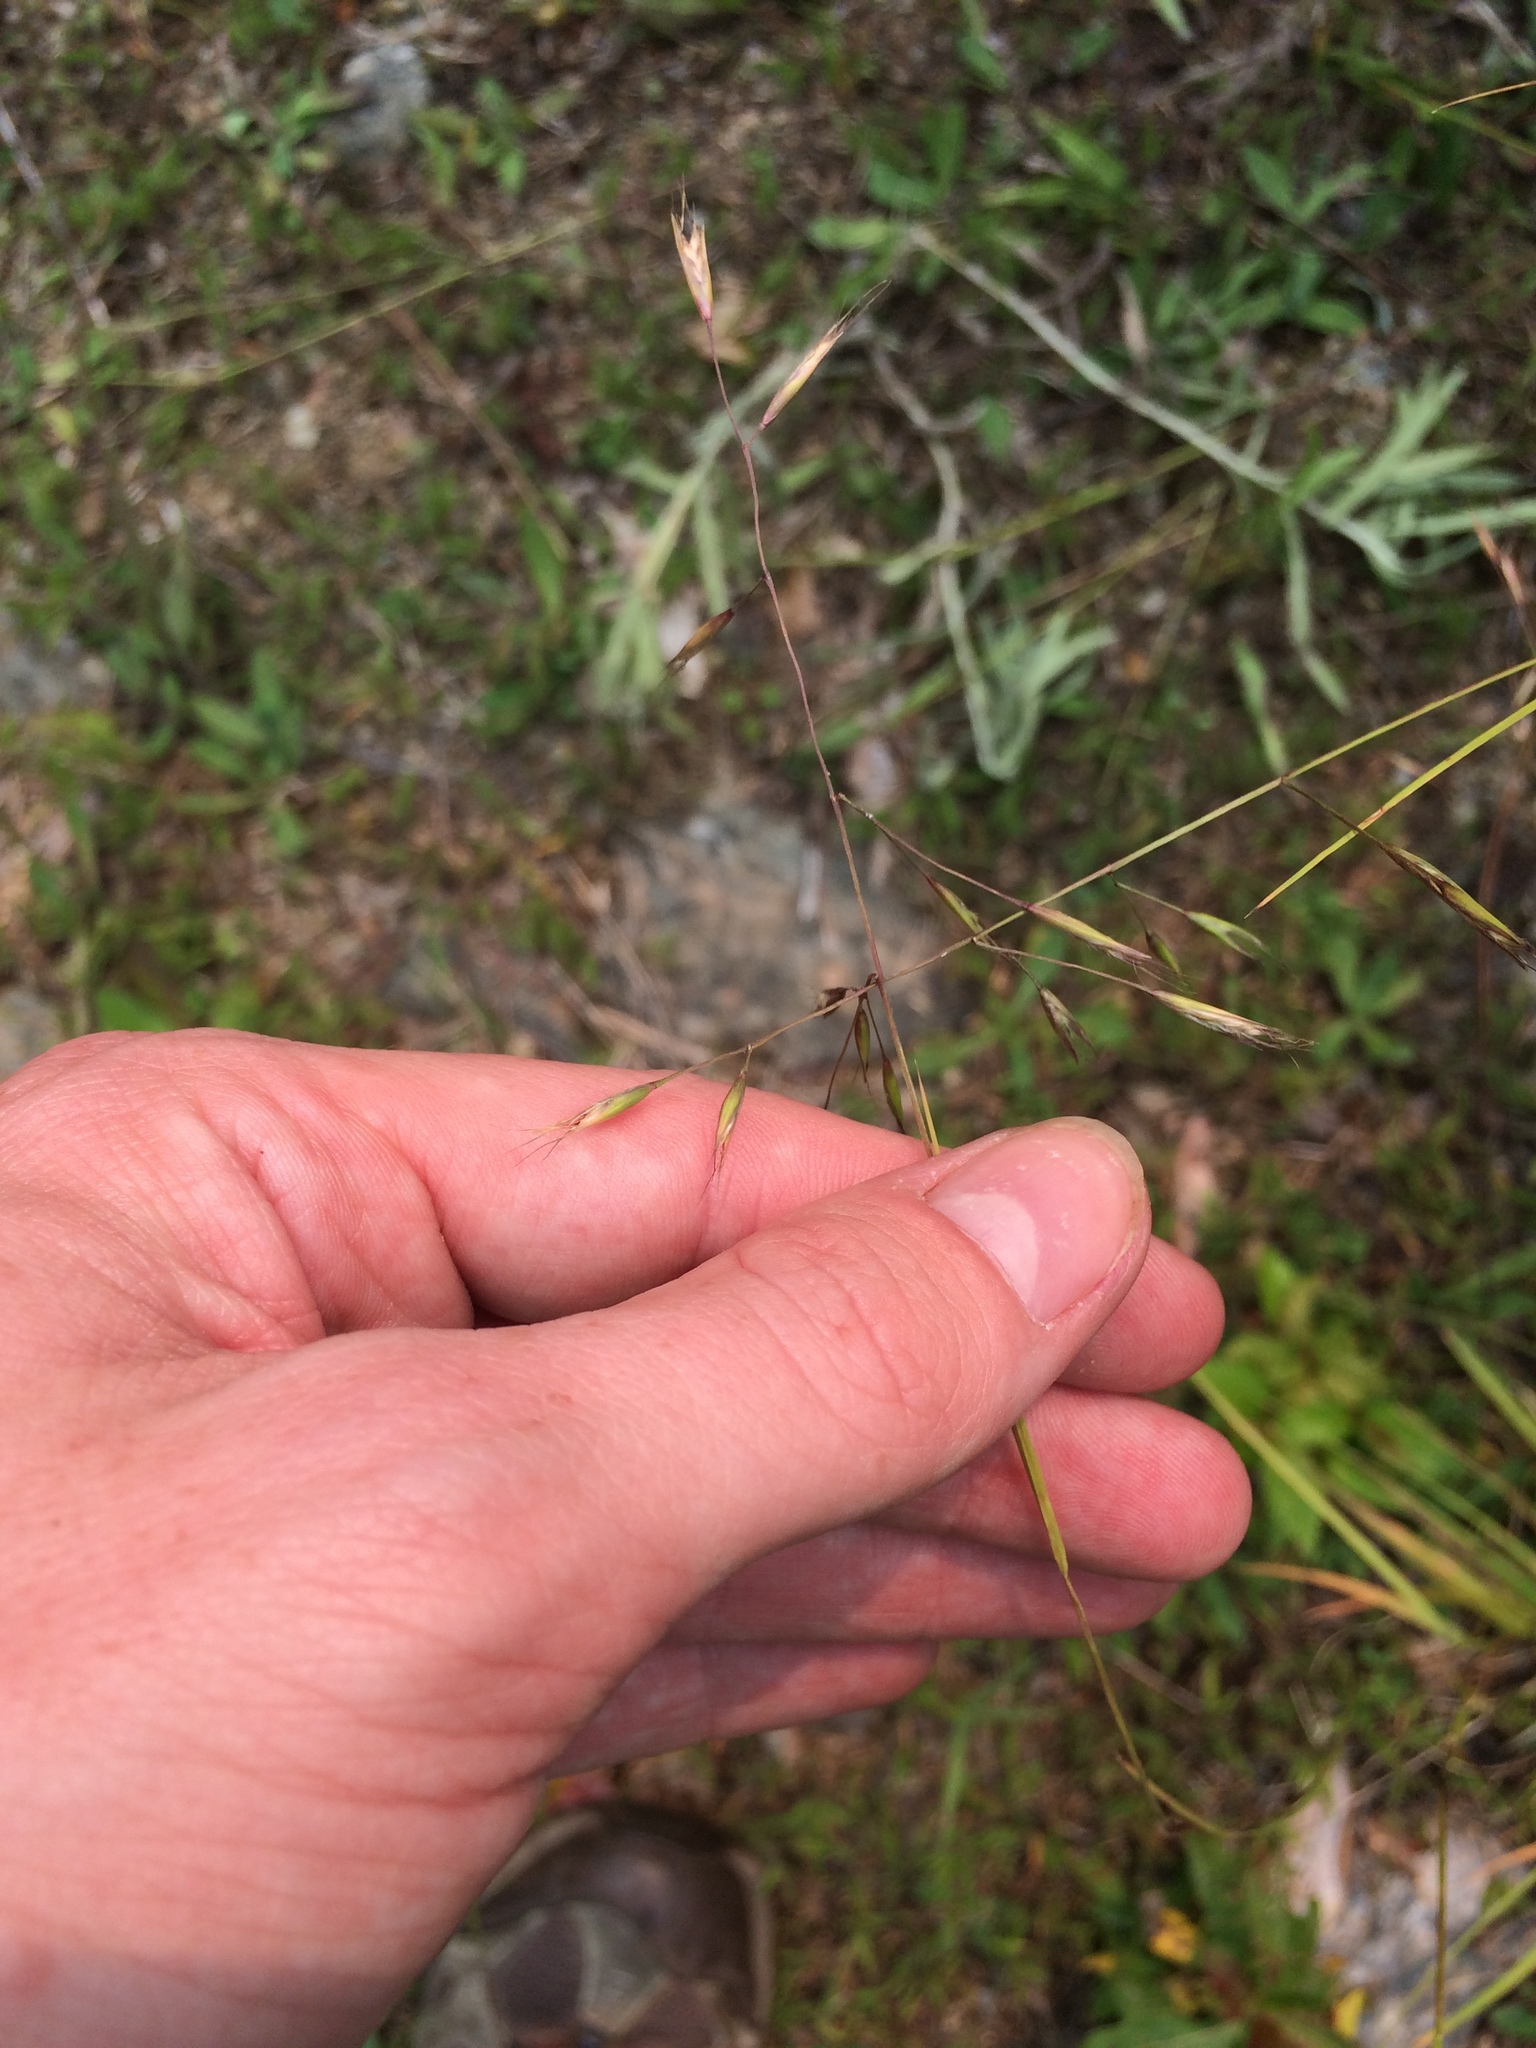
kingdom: Plantae
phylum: Tracheophyta
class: Liliopsida
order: Poales
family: Poaceae
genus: Danthonia
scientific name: Danthonia compressa
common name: Flat-stem oat grass
